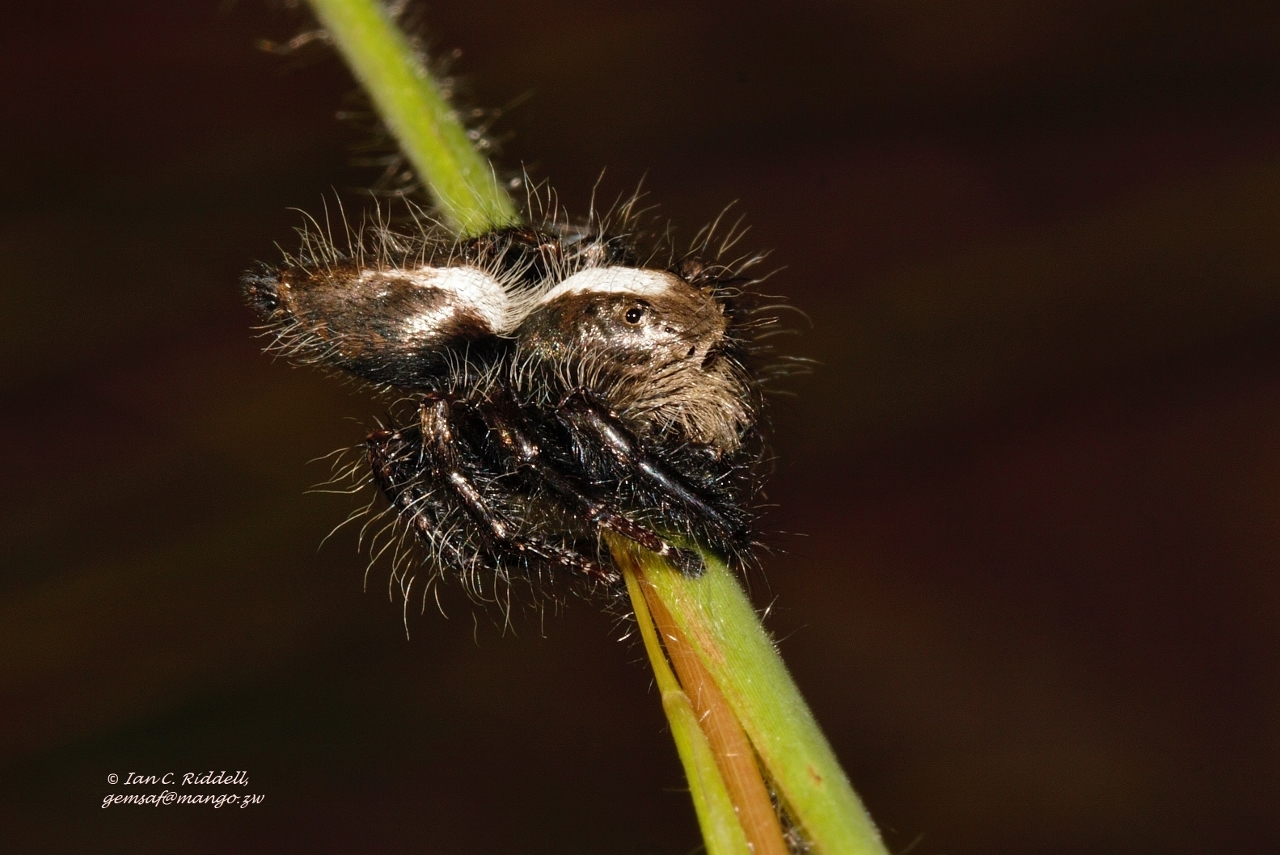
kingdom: Animalia
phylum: Arthropoda
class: Arachnida
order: Araneae
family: Salticidae
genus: Hyllus
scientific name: Hyllus treleaveni
